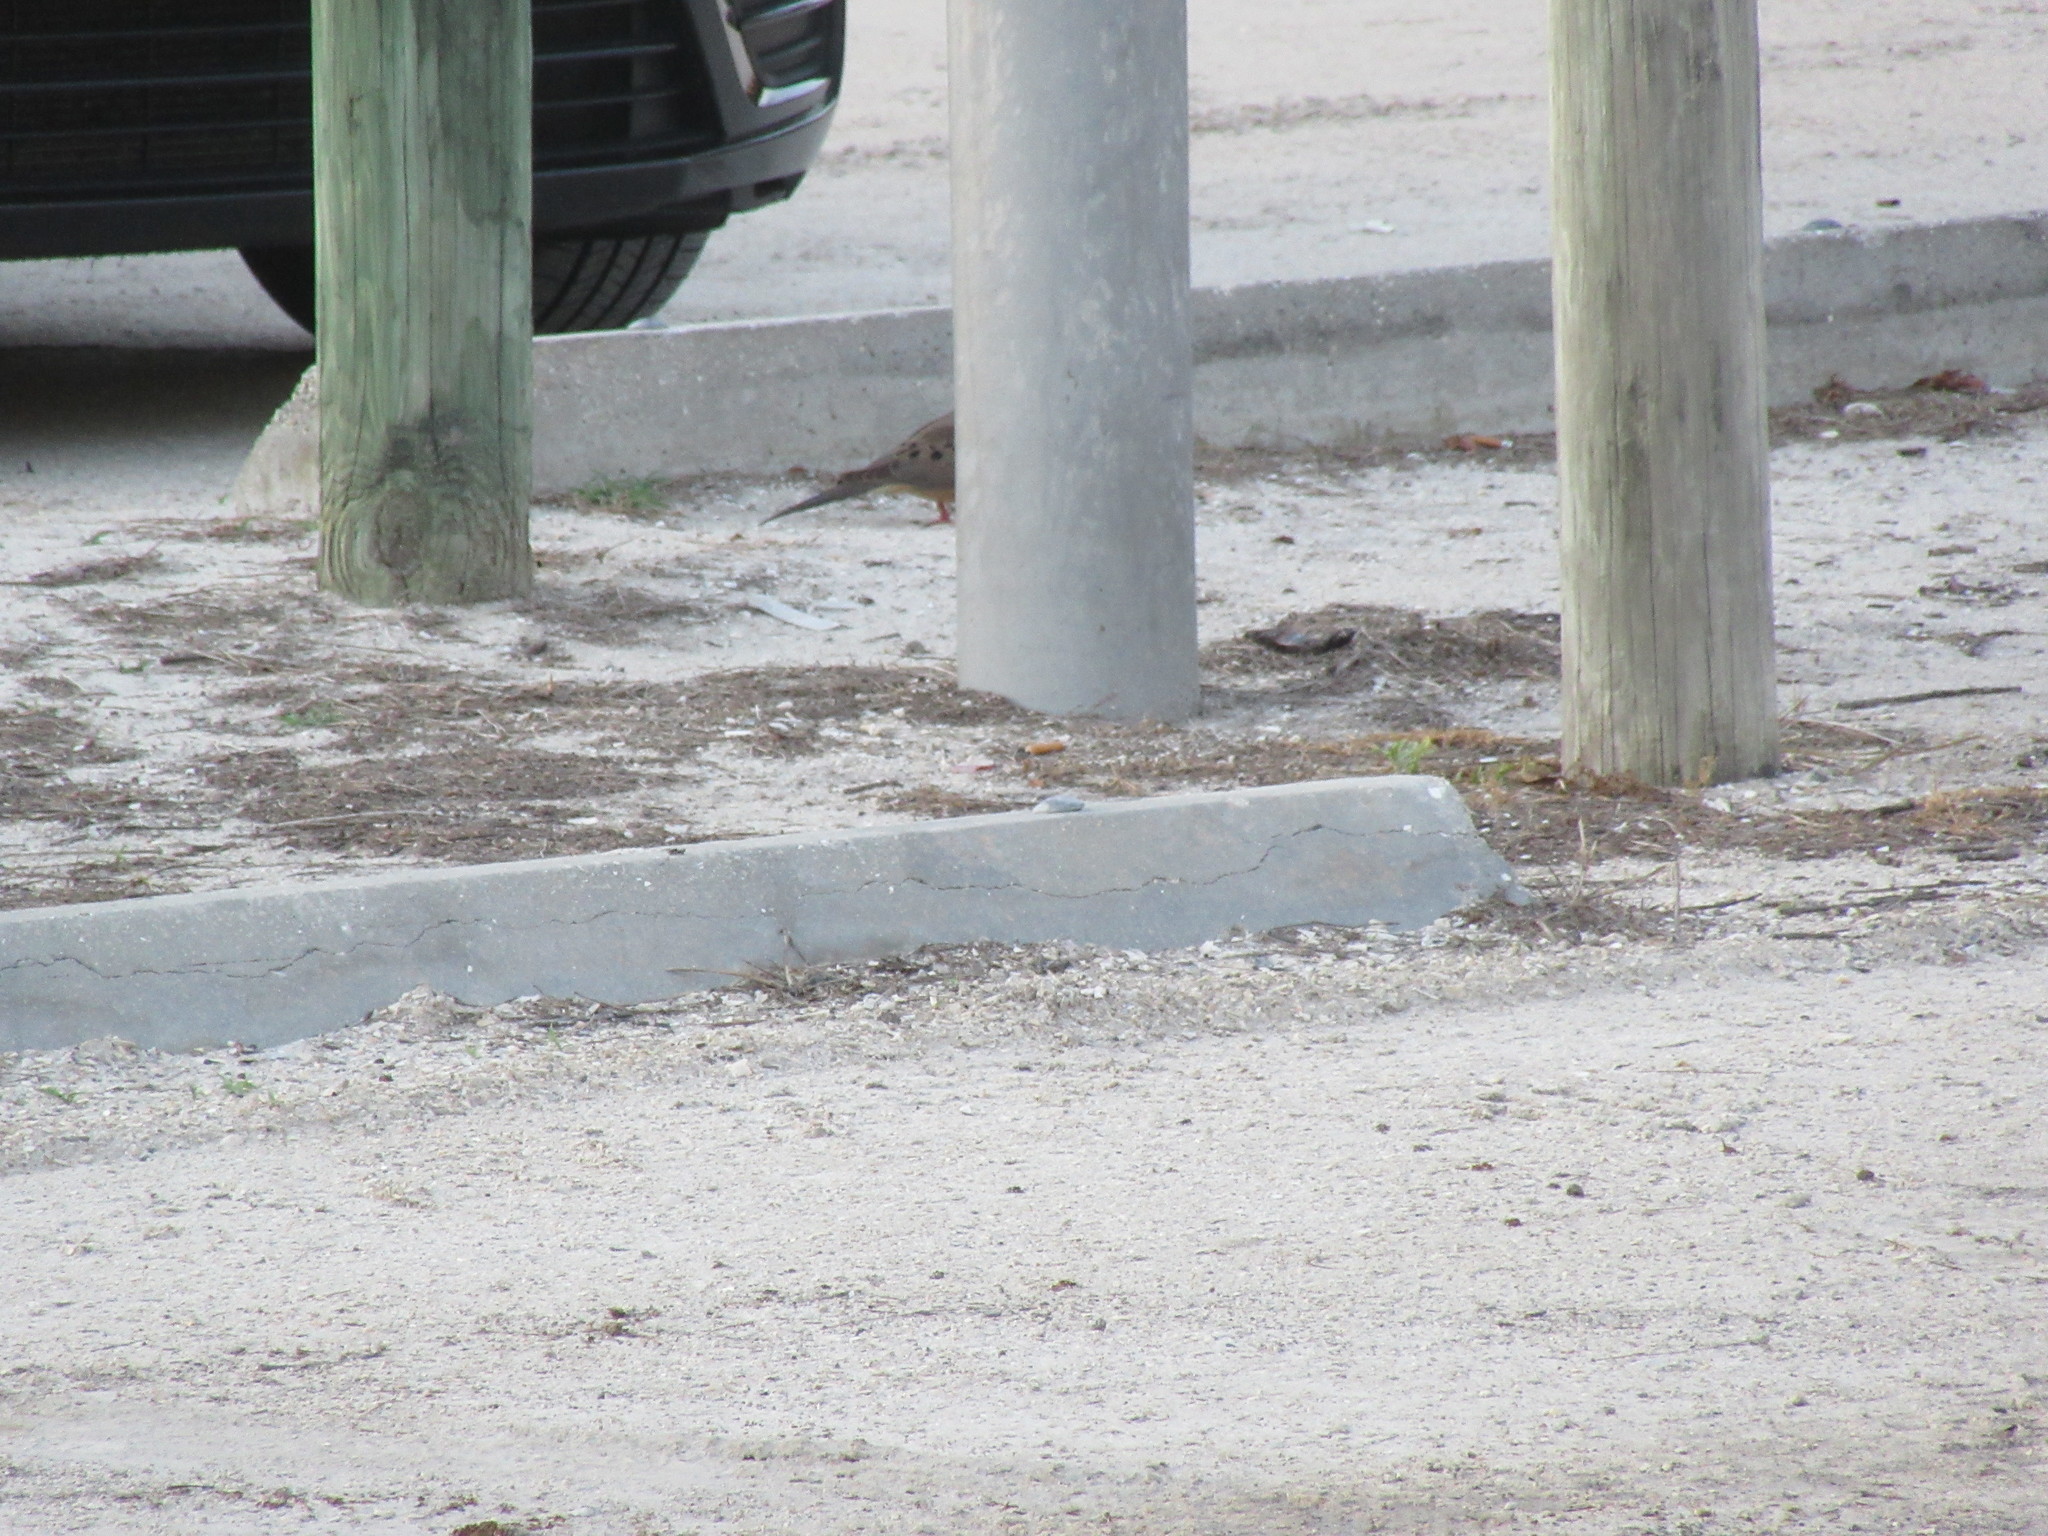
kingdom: Animalia
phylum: Chordata
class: Aves
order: Columbiformes
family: Columbidae
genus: Zenaida
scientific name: Zenaida macroura
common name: Mourning dove
